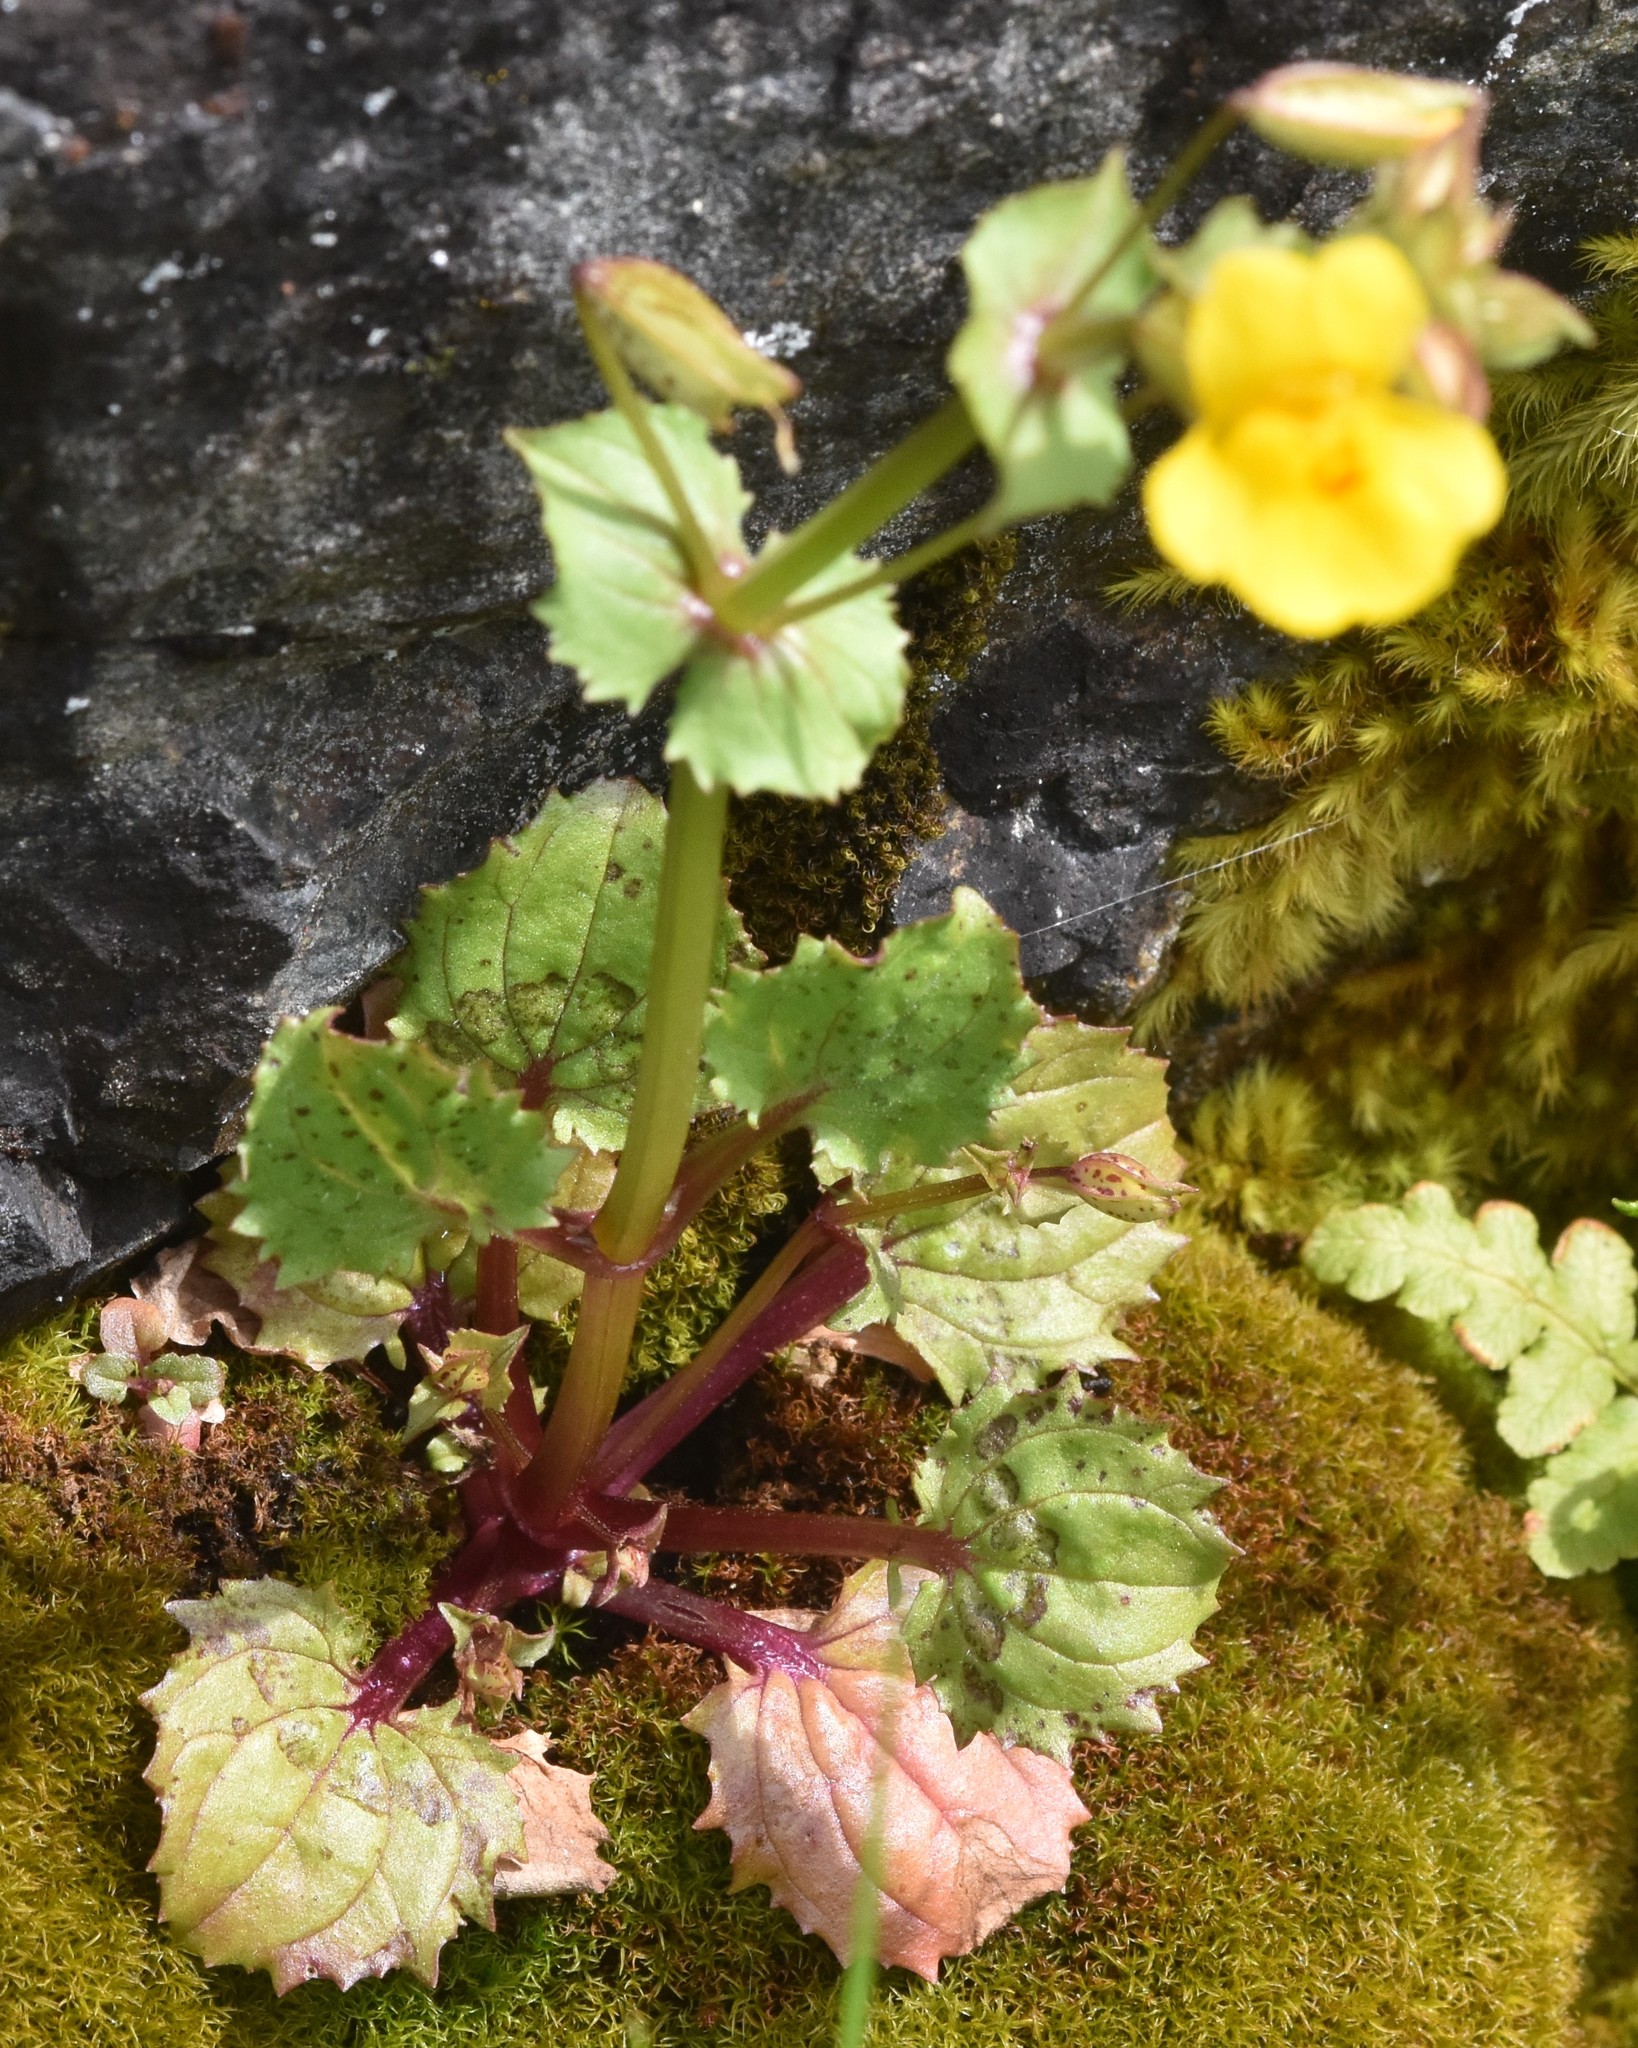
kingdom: Plantae
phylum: Tracheophyta
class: Magnoliopsida
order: Lamiales
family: Phrymaceae
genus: Erythranthe
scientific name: Erythranthe nasuta
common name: Sooke monkeyflower
